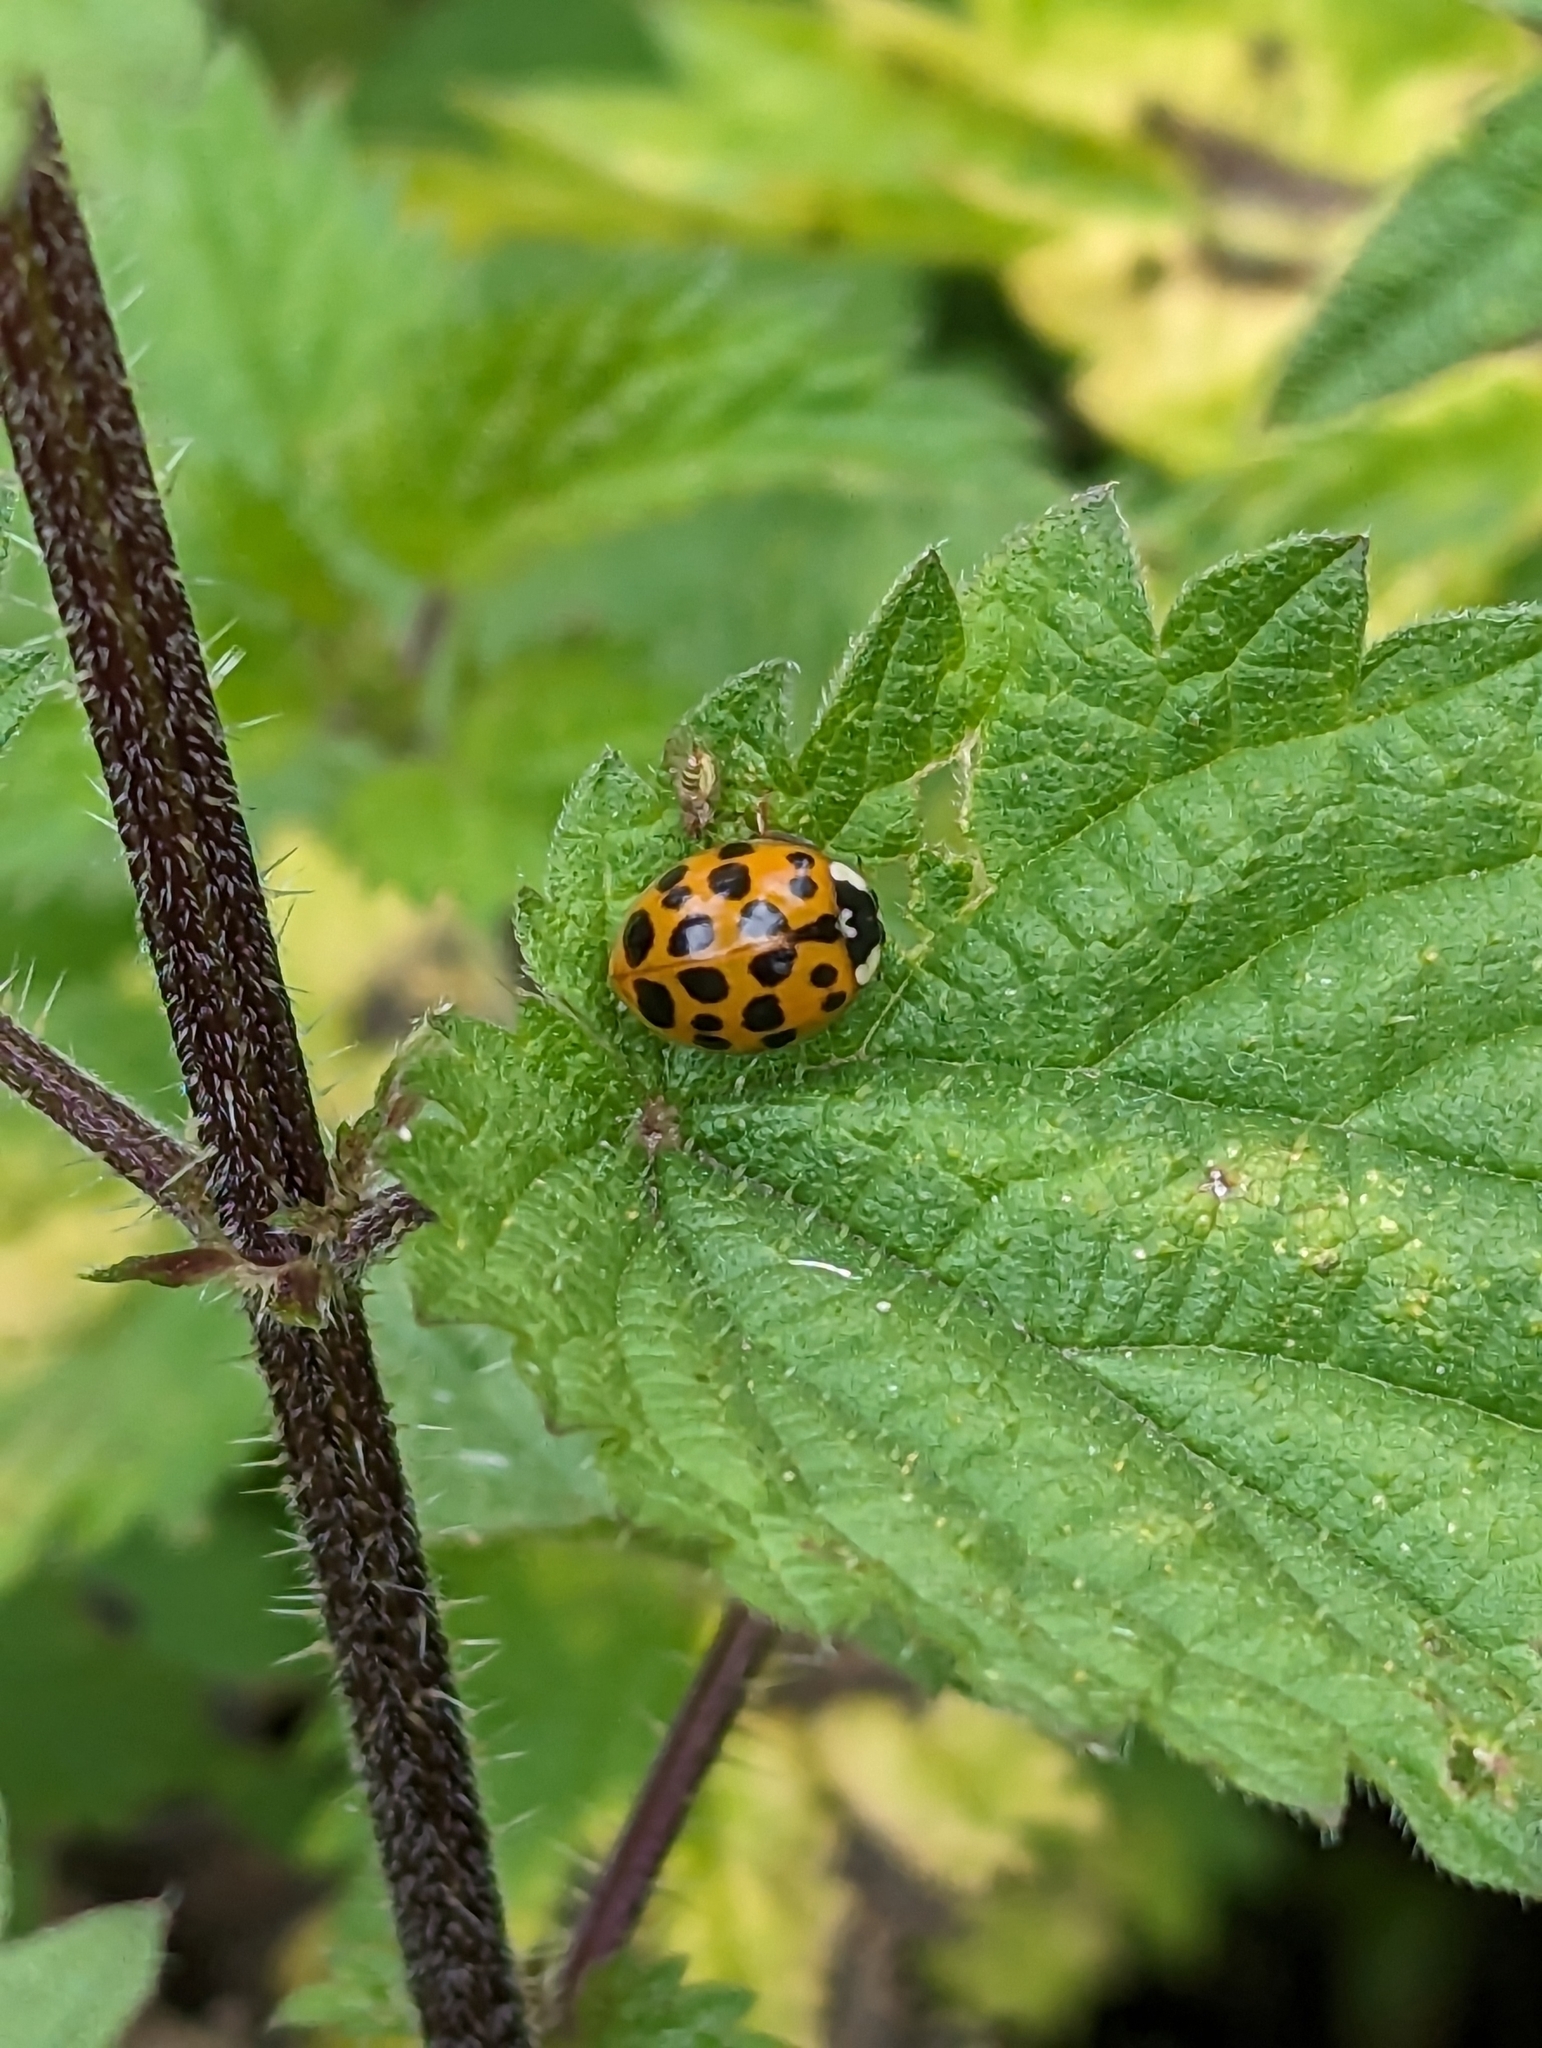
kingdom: Animalia
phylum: Arthropoda
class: Insecta
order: Coleoptera
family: Coccinellidae
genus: Harmonia
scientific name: Harmonia axyridis
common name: Harlequin ladybird
